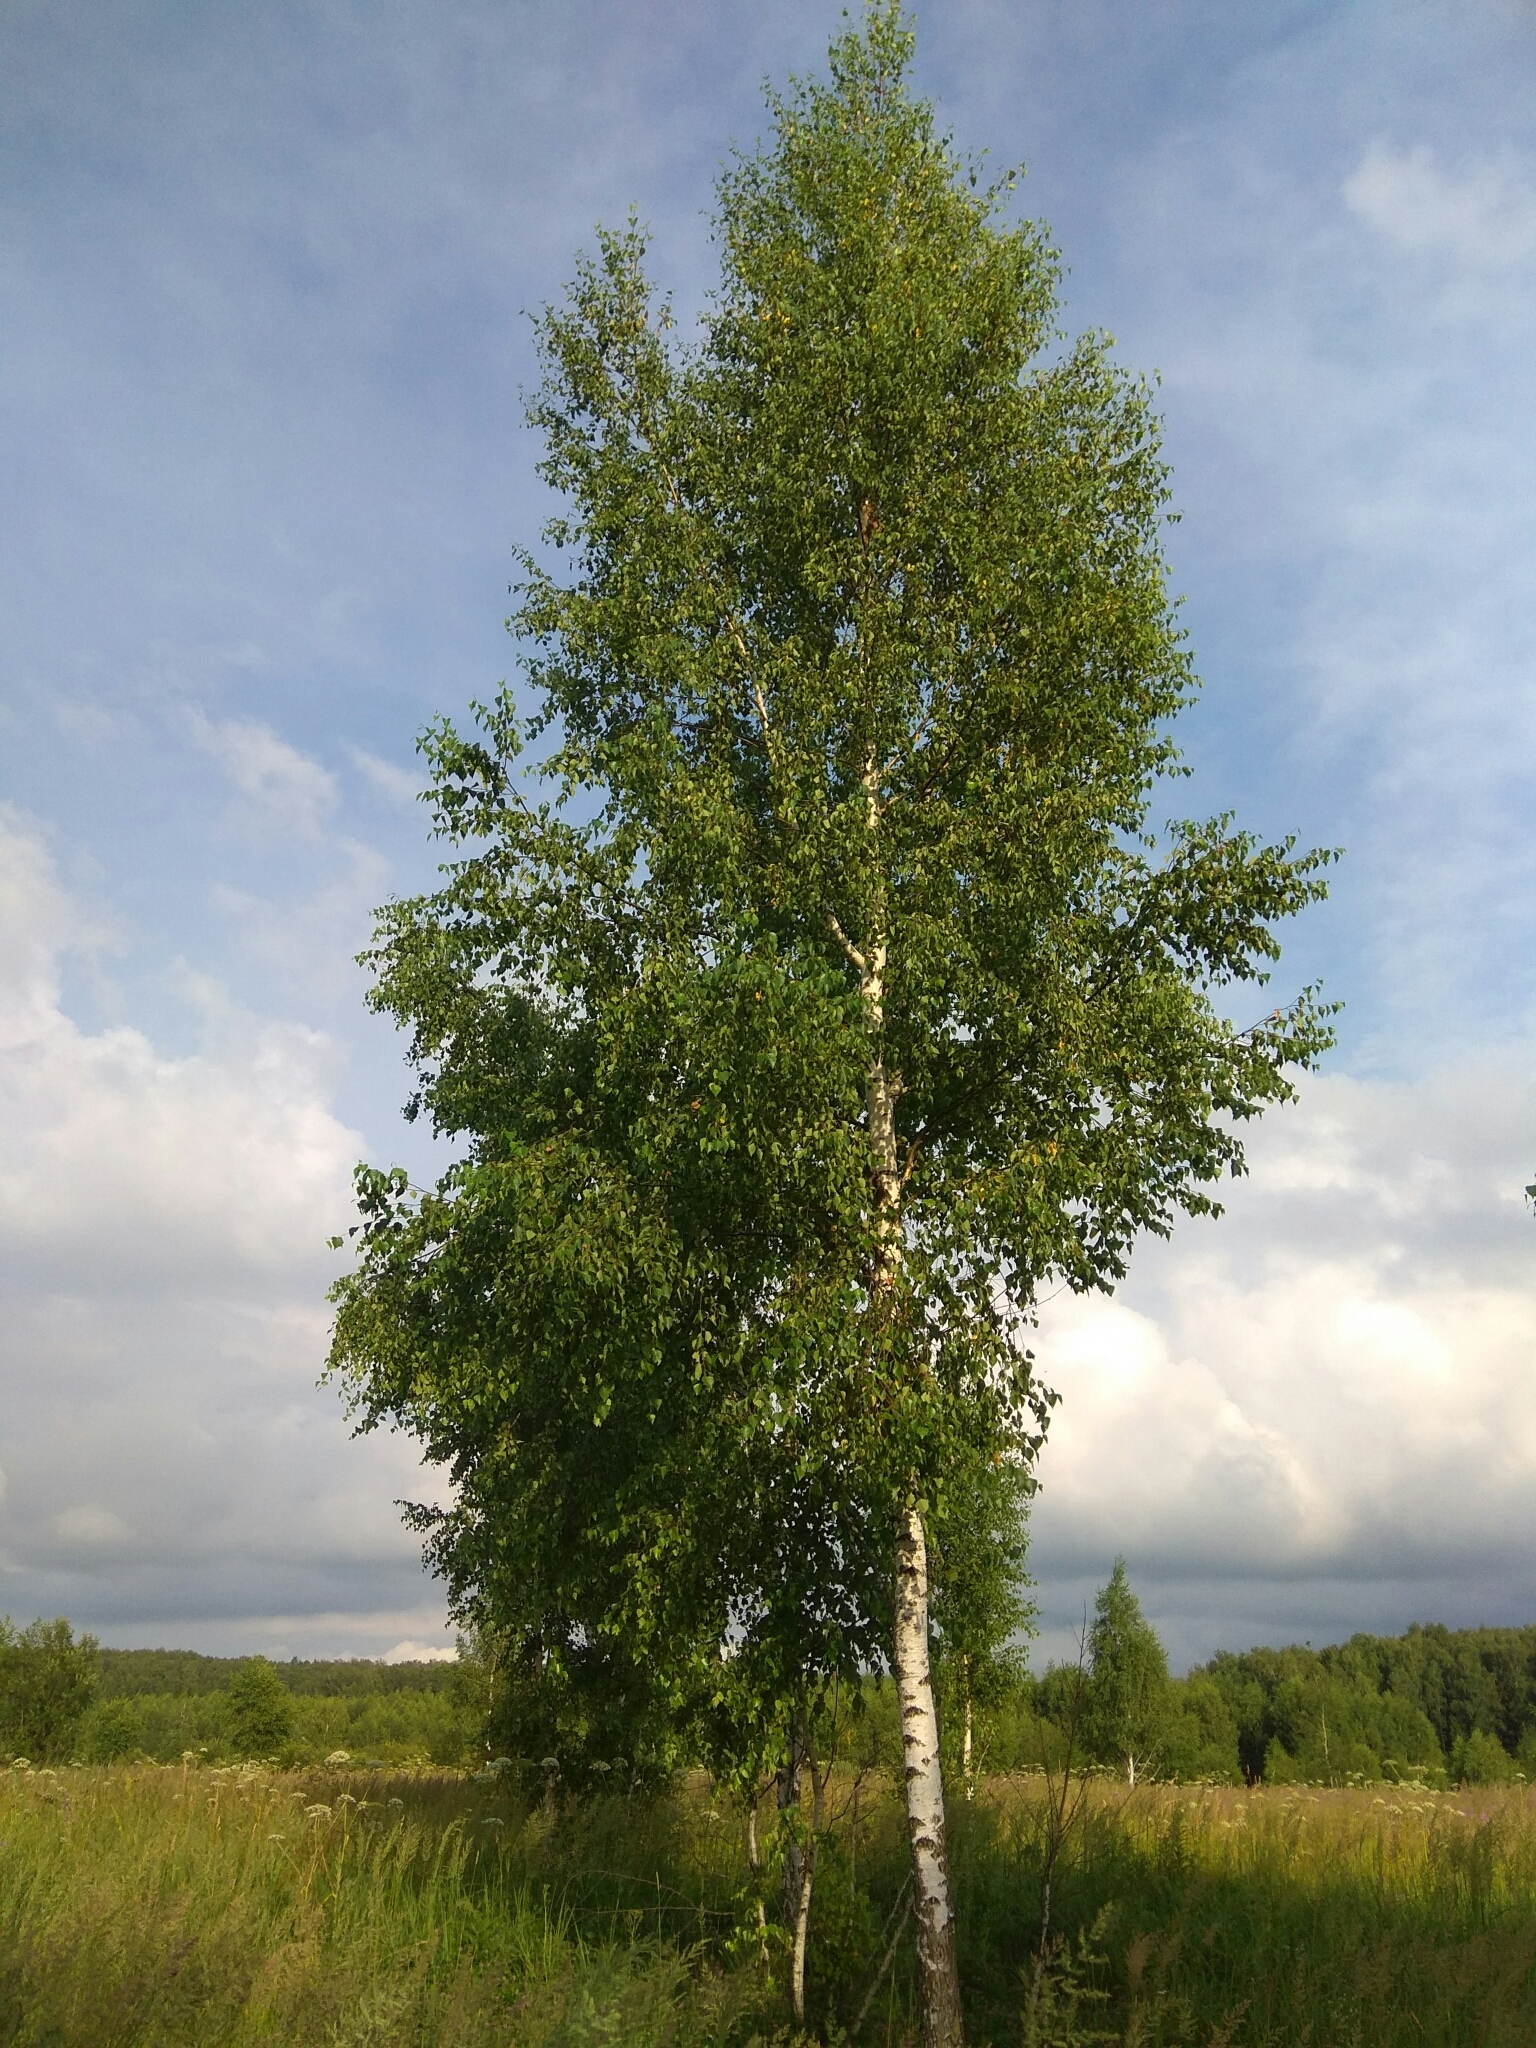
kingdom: Plantae
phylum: Tracheophyta
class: Magnoliopsida
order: Fagales
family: Betulaceae
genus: Betula
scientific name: Betula pendula
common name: Silver birch
